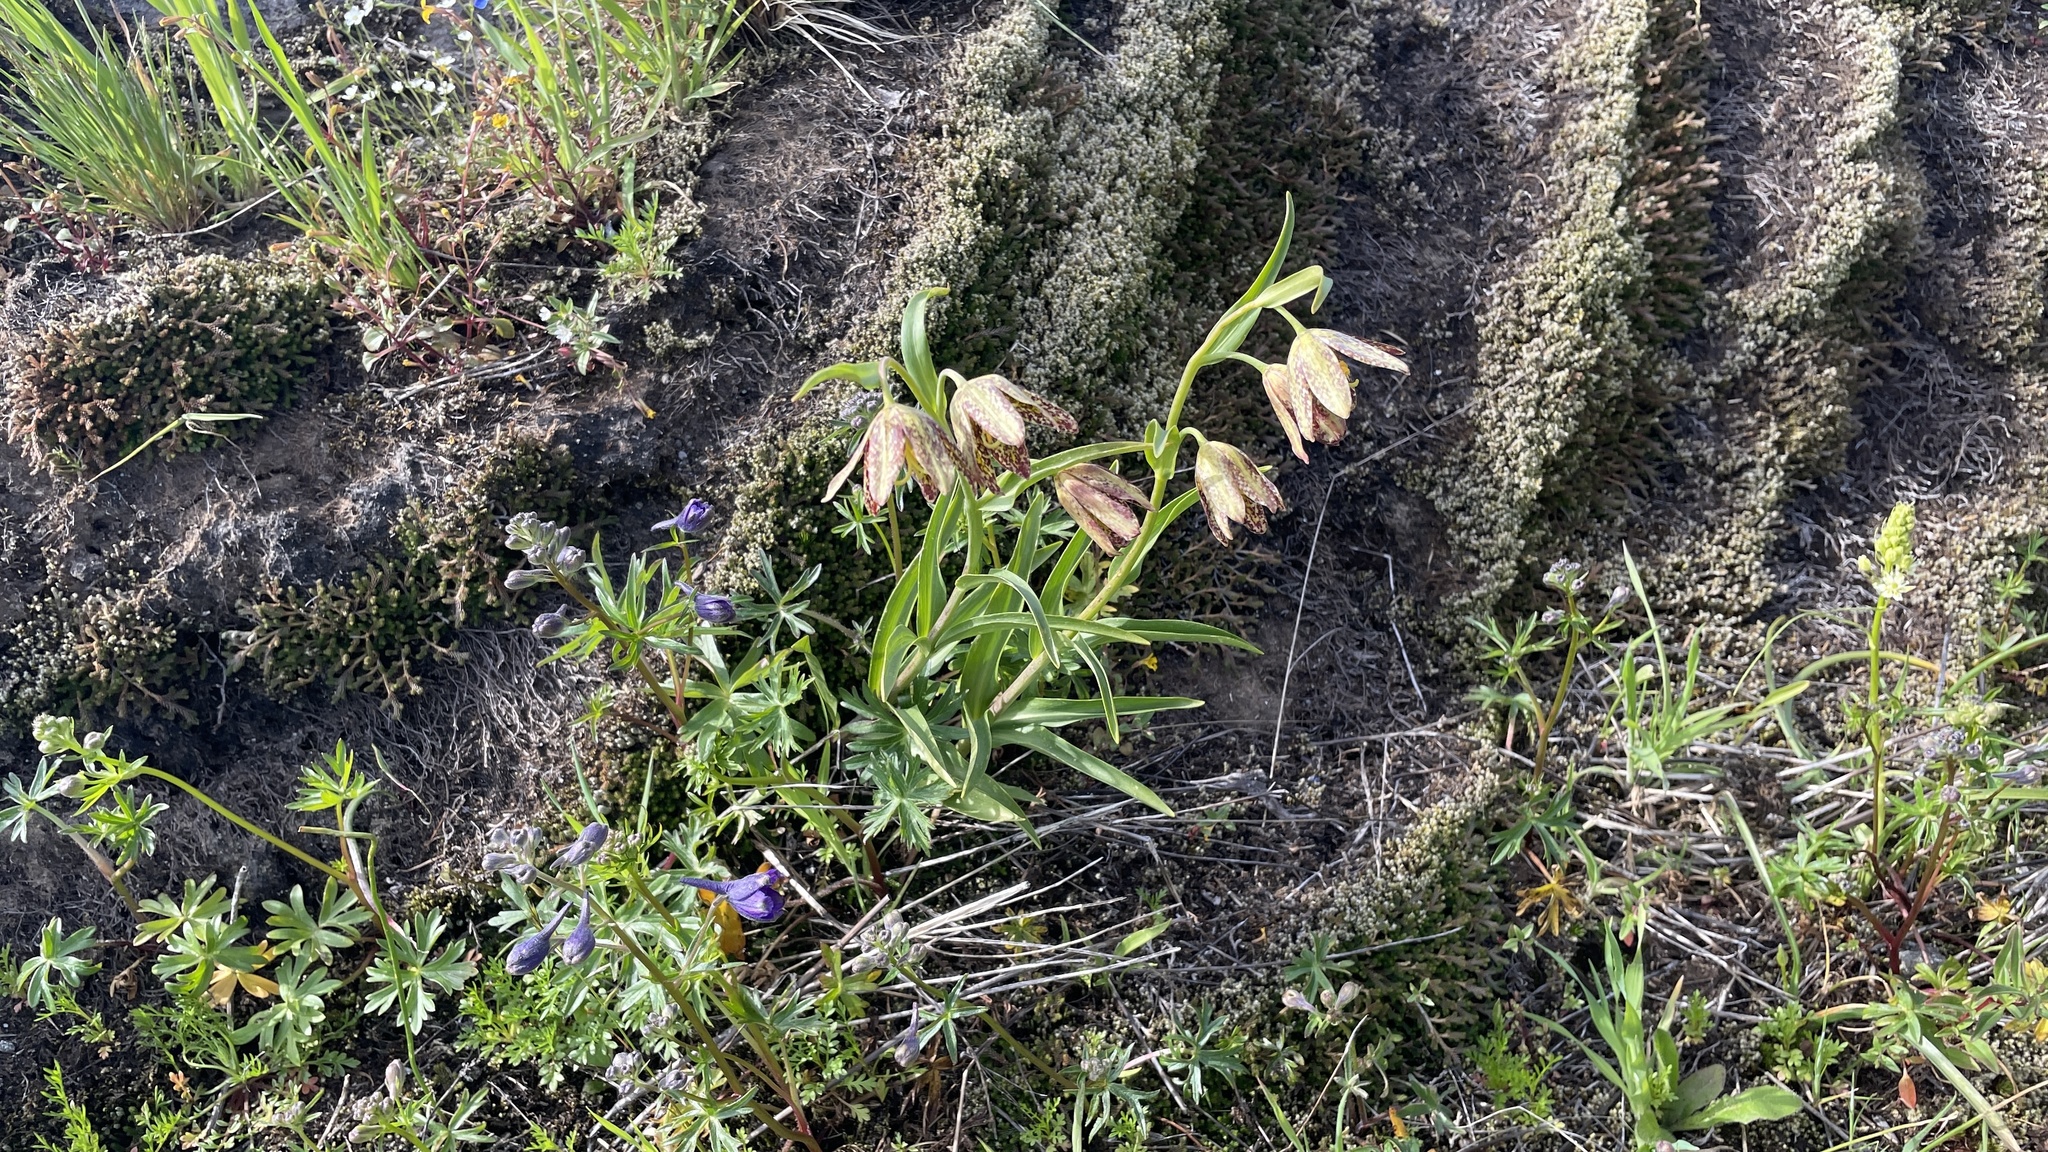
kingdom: Plantae
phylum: Tracheophyta
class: Liliopsida
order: Liliales
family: Liliaceae
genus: Fritillaria
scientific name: Fritillaria affinis
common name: Ojai fritillary
